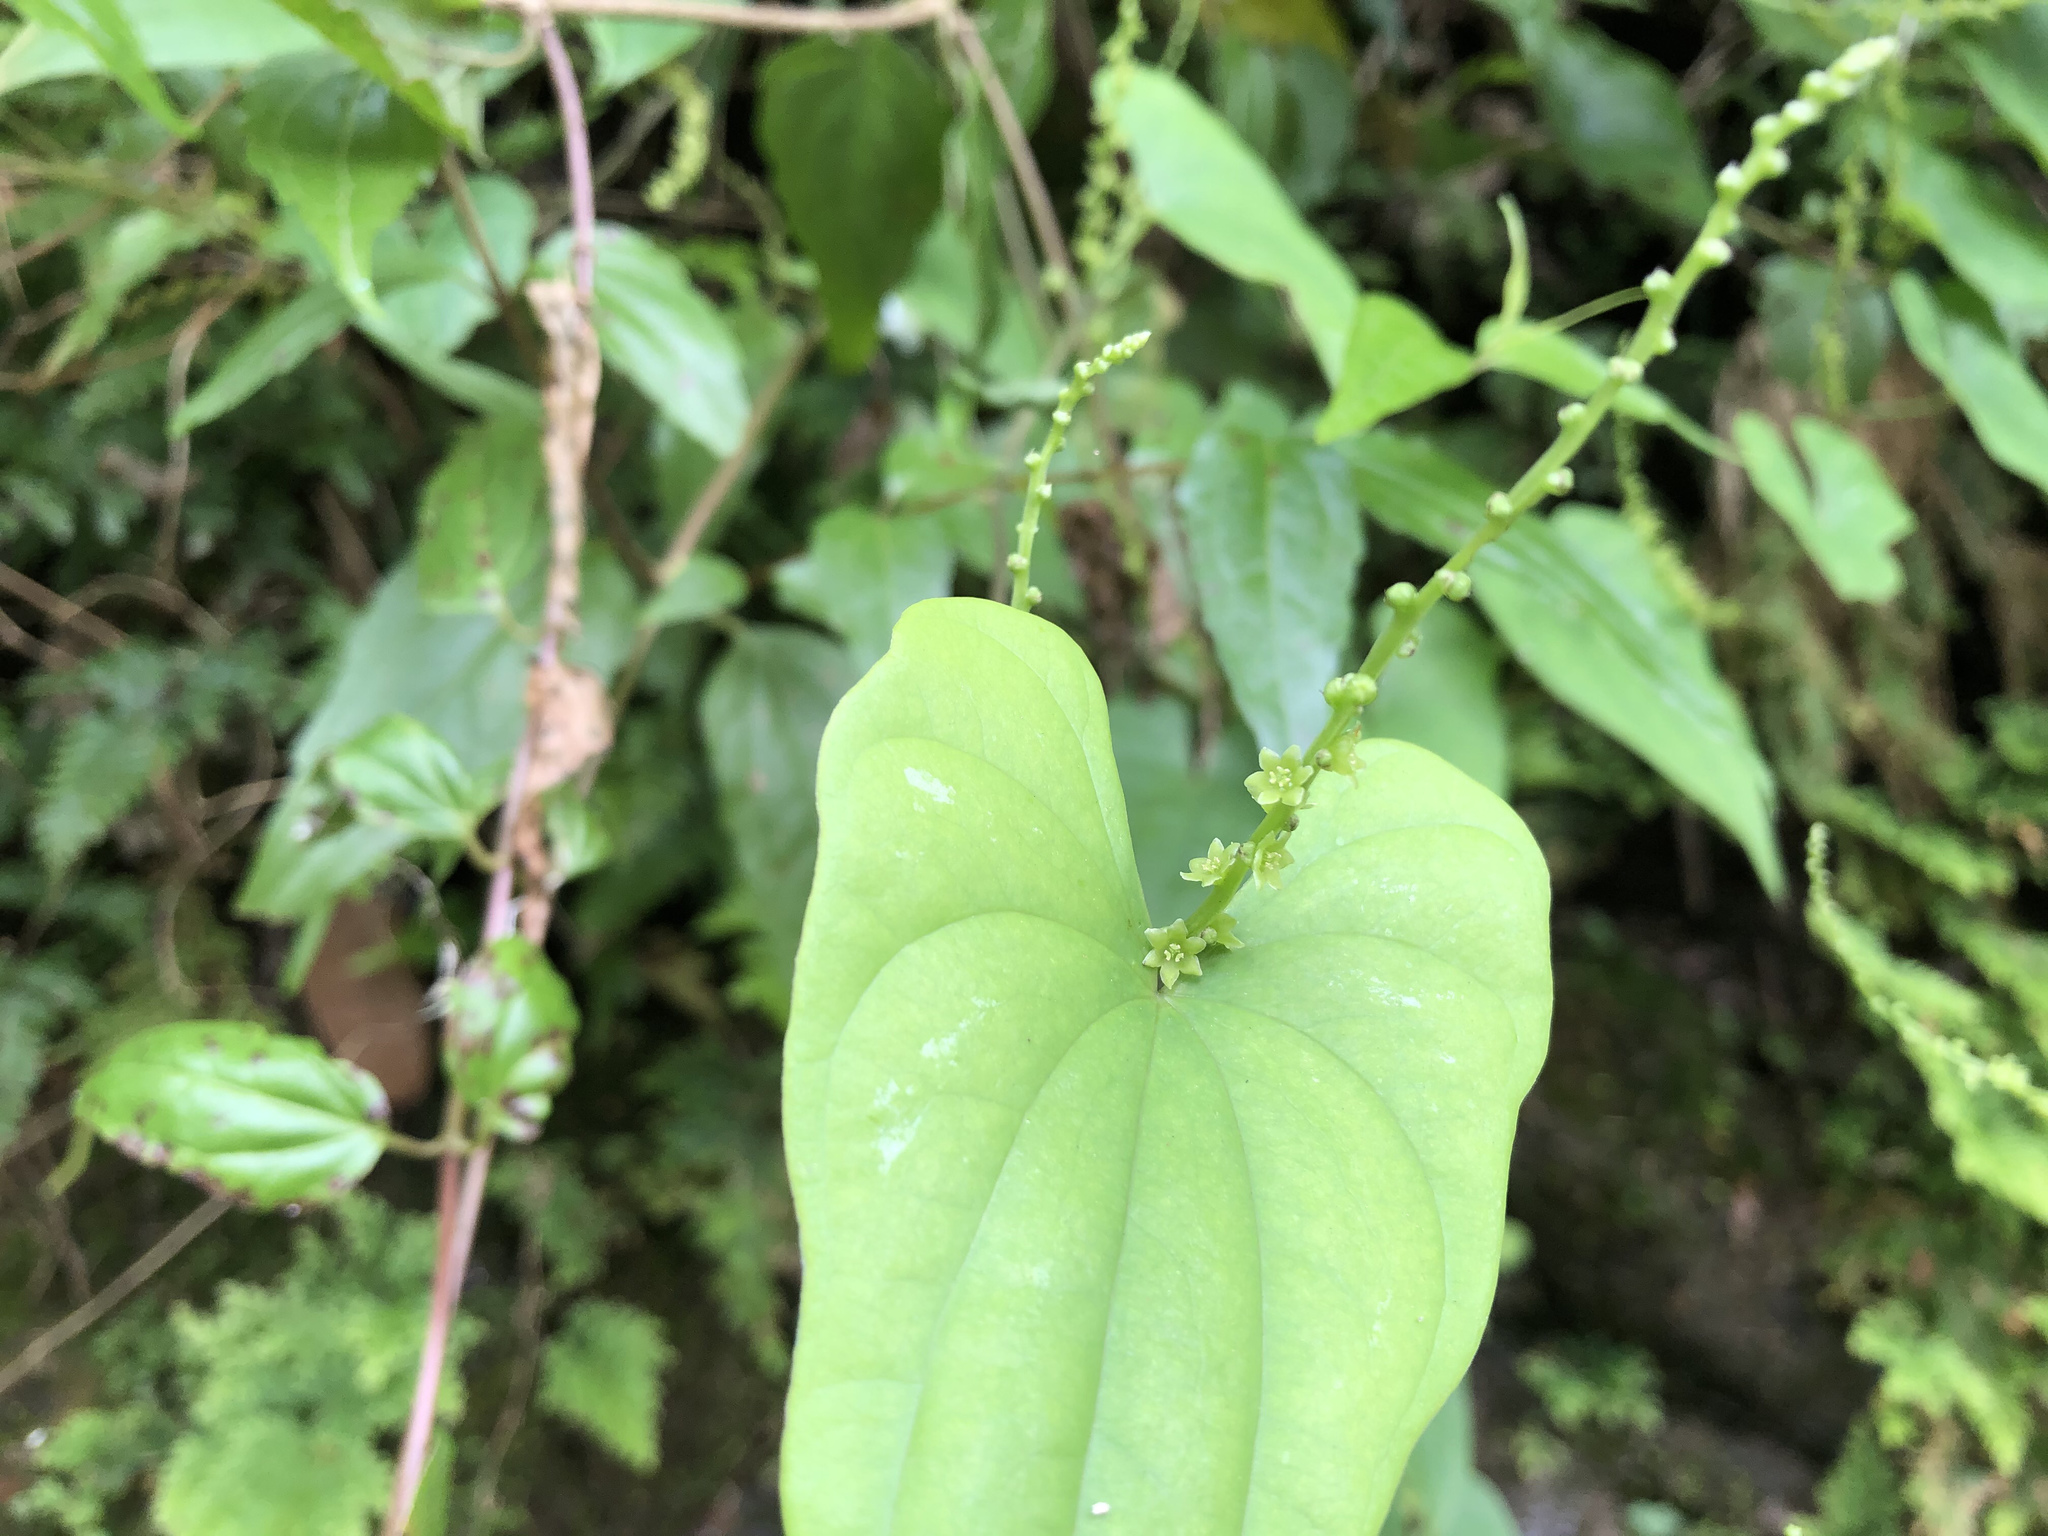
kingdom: Plantae
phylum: Tracheophyta
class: Liliopsida
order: Dioscoreales
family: Dioscoreaceae
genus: Dioscorea
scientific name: Dioscorea collettii
